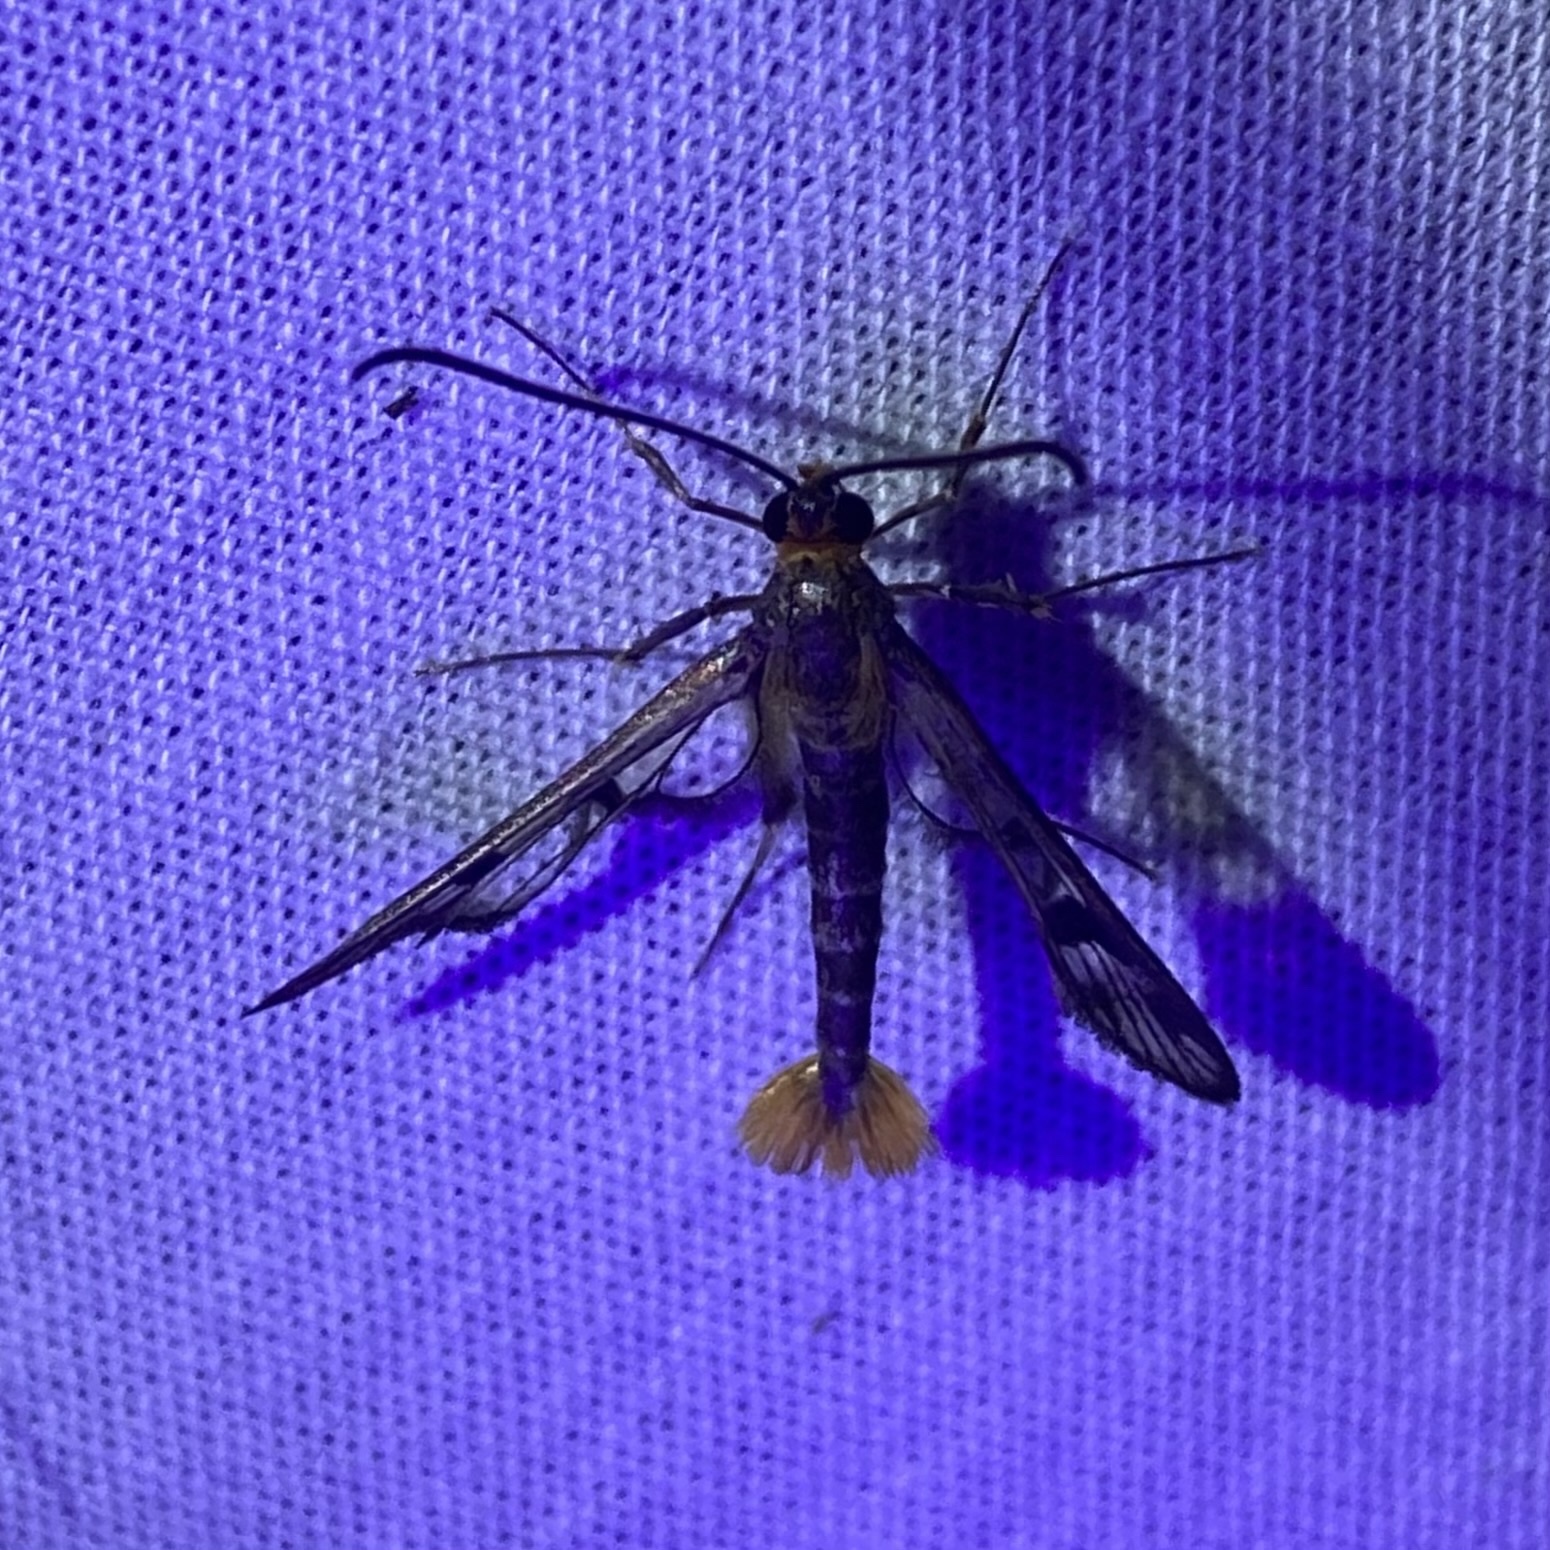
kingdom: Animalia
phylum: Arthropoda
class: Insecta
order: Lepidoptera
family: Sesiidae
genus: Synanthedon
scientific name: Synanthedon acerni
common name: Maple callus borer moth
